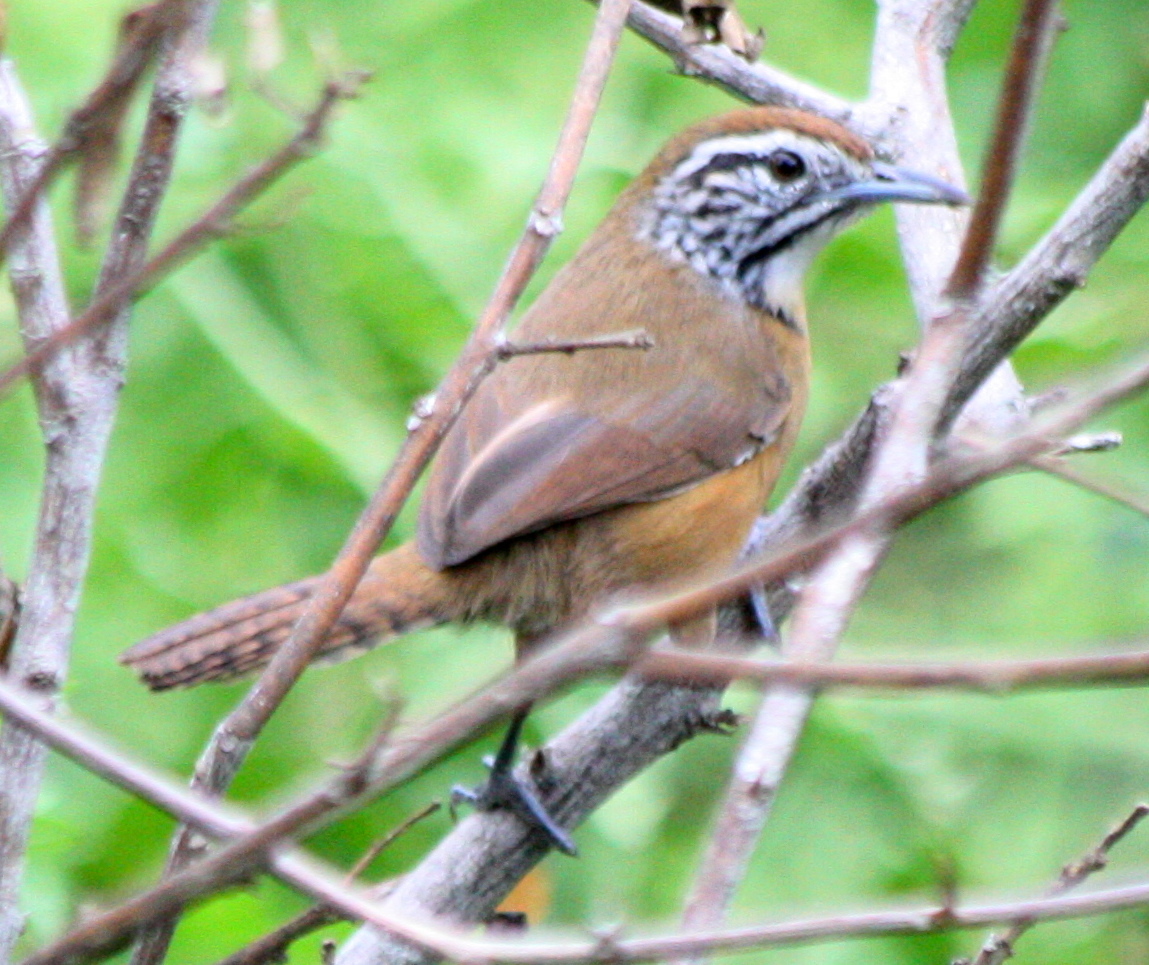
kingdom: Animalia
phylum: Chordata
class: Aves
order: Passeriformes
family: Troglodytidae
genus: Pheugopedius
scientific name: Pheugopedius felix
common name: Happy wren
